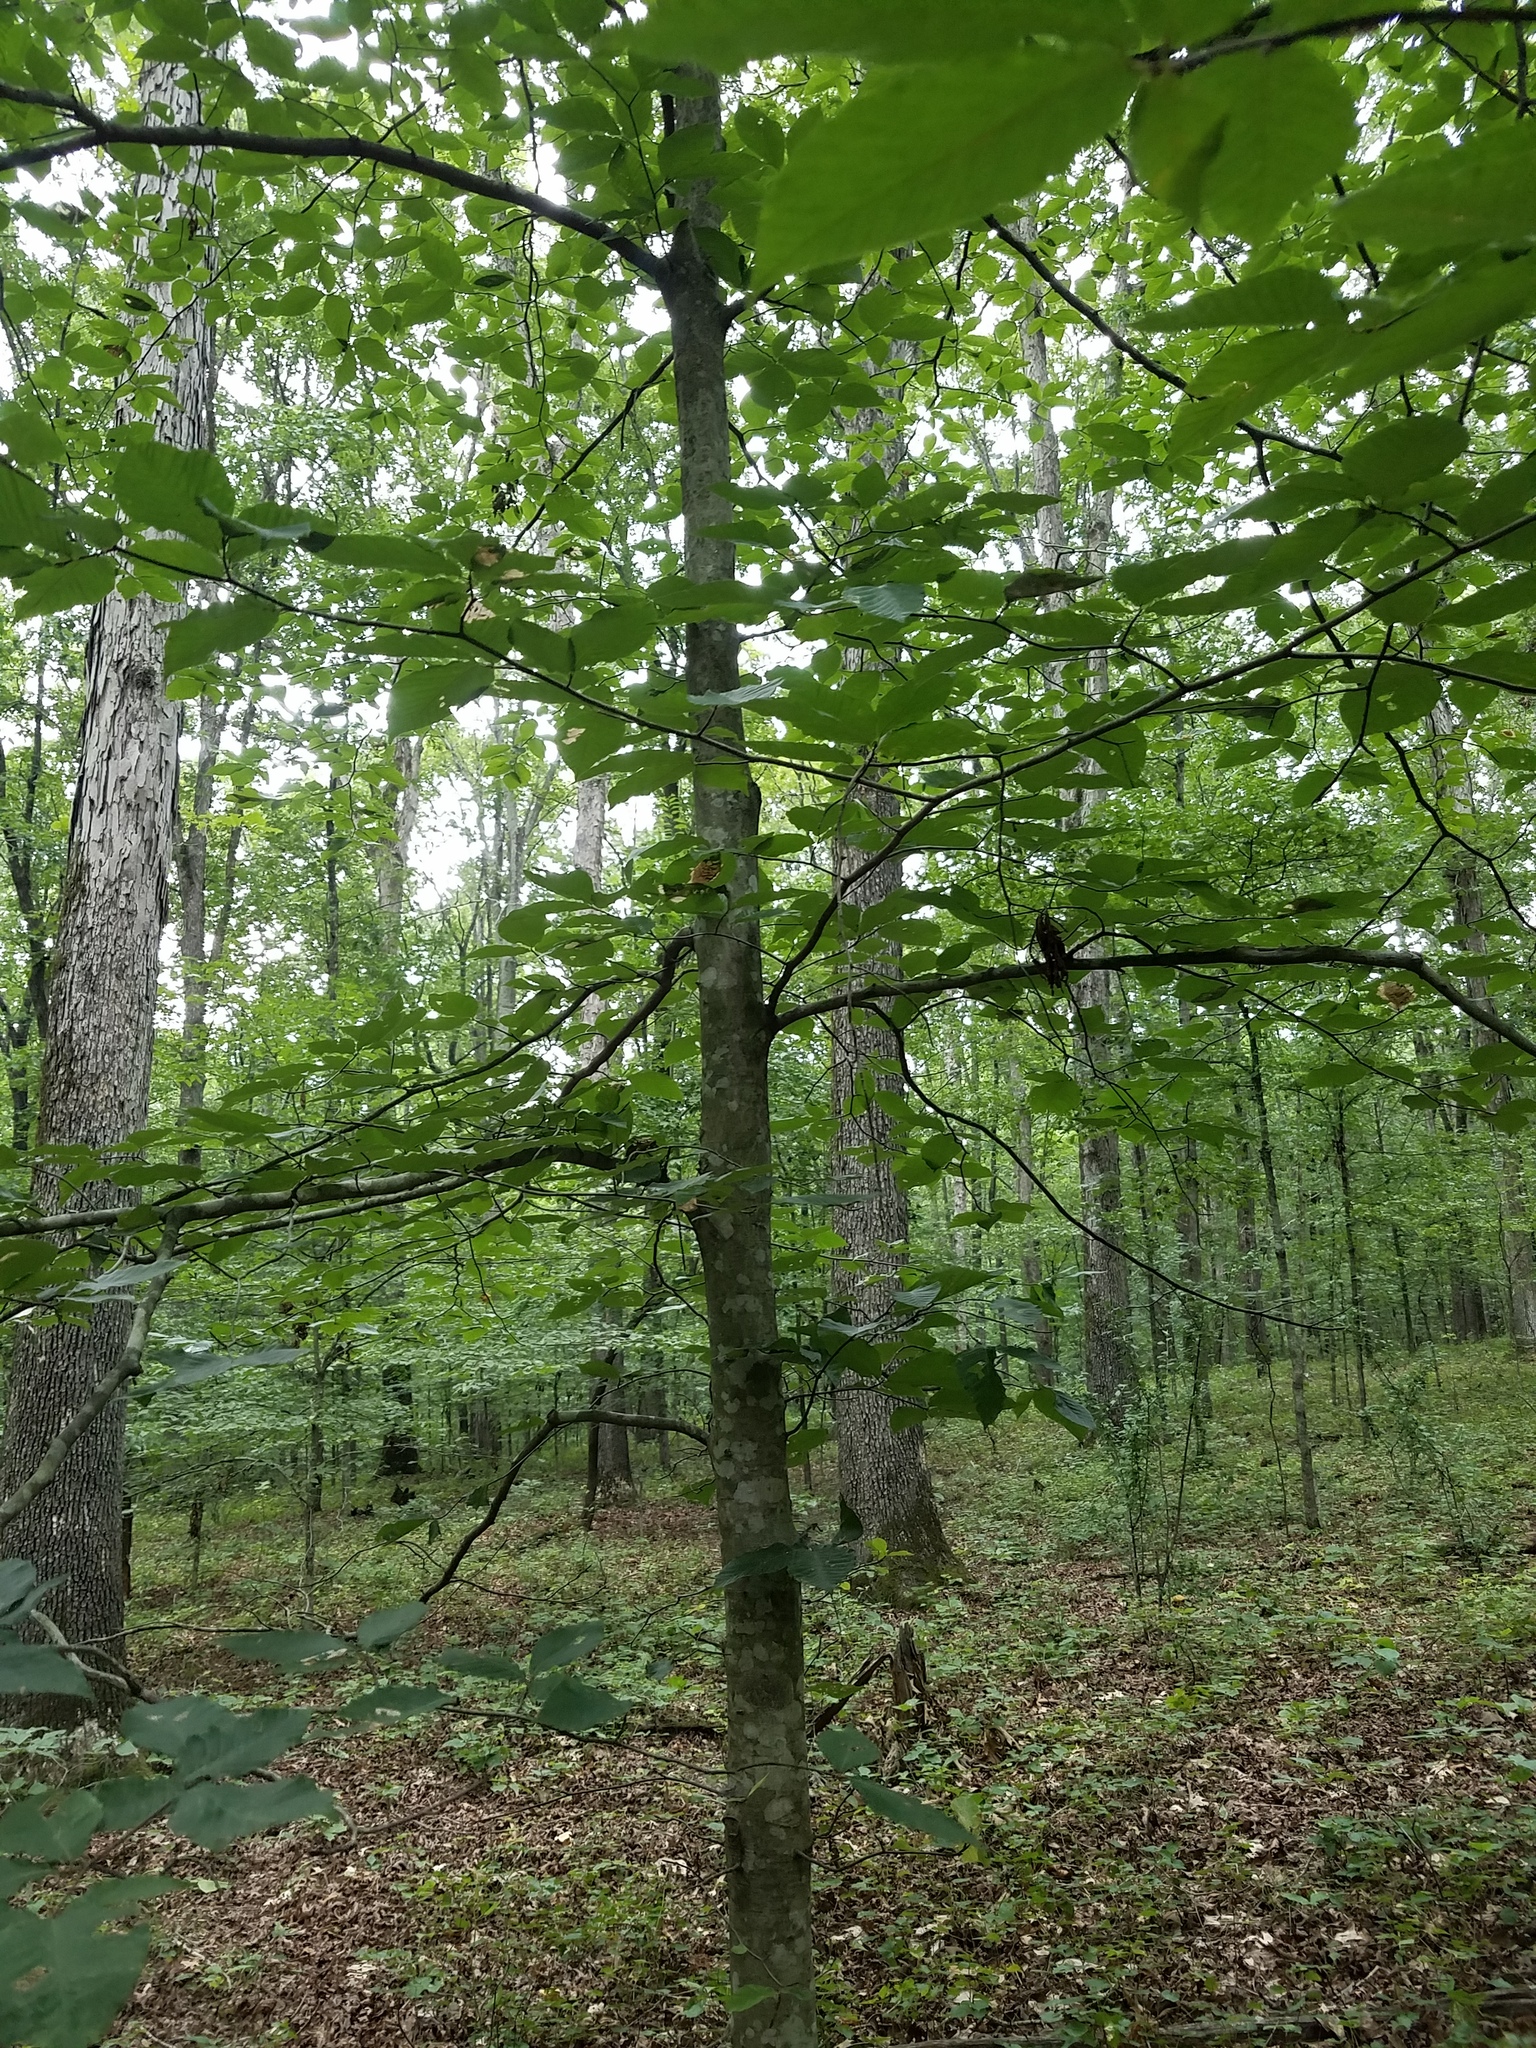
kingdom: Plantae
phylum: Tracheophyta
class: Magnoliopsida
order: Fagales
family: Fagaceae
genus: Fagus
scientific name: Fagus grandifolia
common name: American beech
